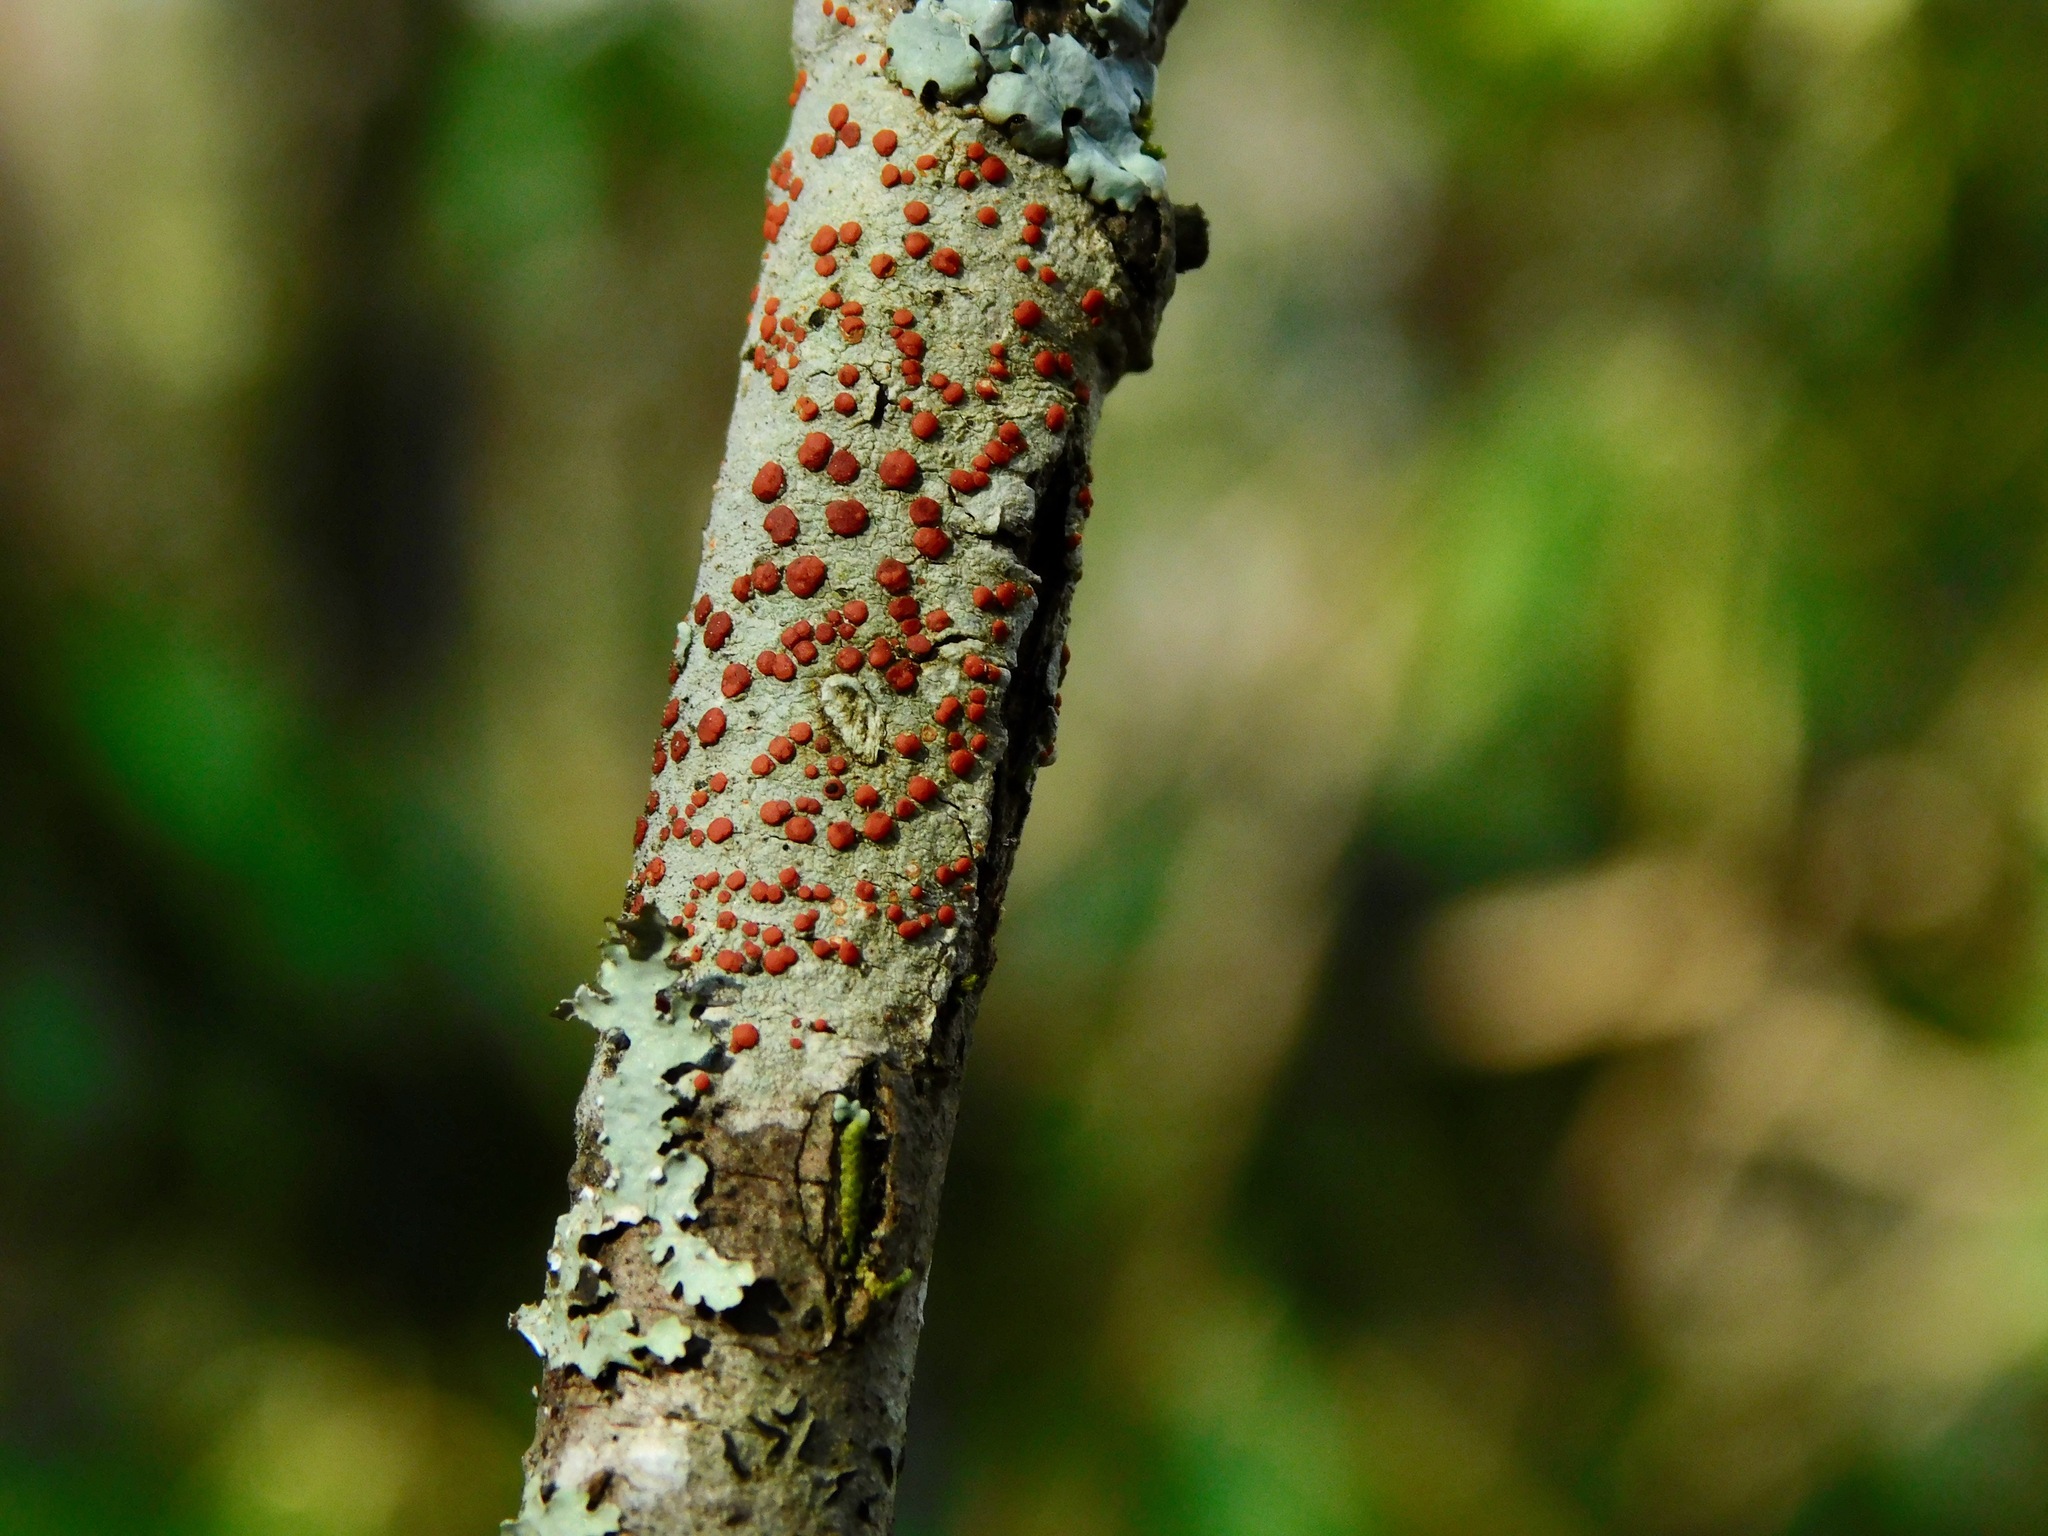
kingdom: Fungi
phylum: Ascomycota
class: Lecanoromycetes
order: Lecanorales
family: Ramboldiaceae
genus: Ramboldia
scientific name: Ramboldia russula
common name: Red heads
